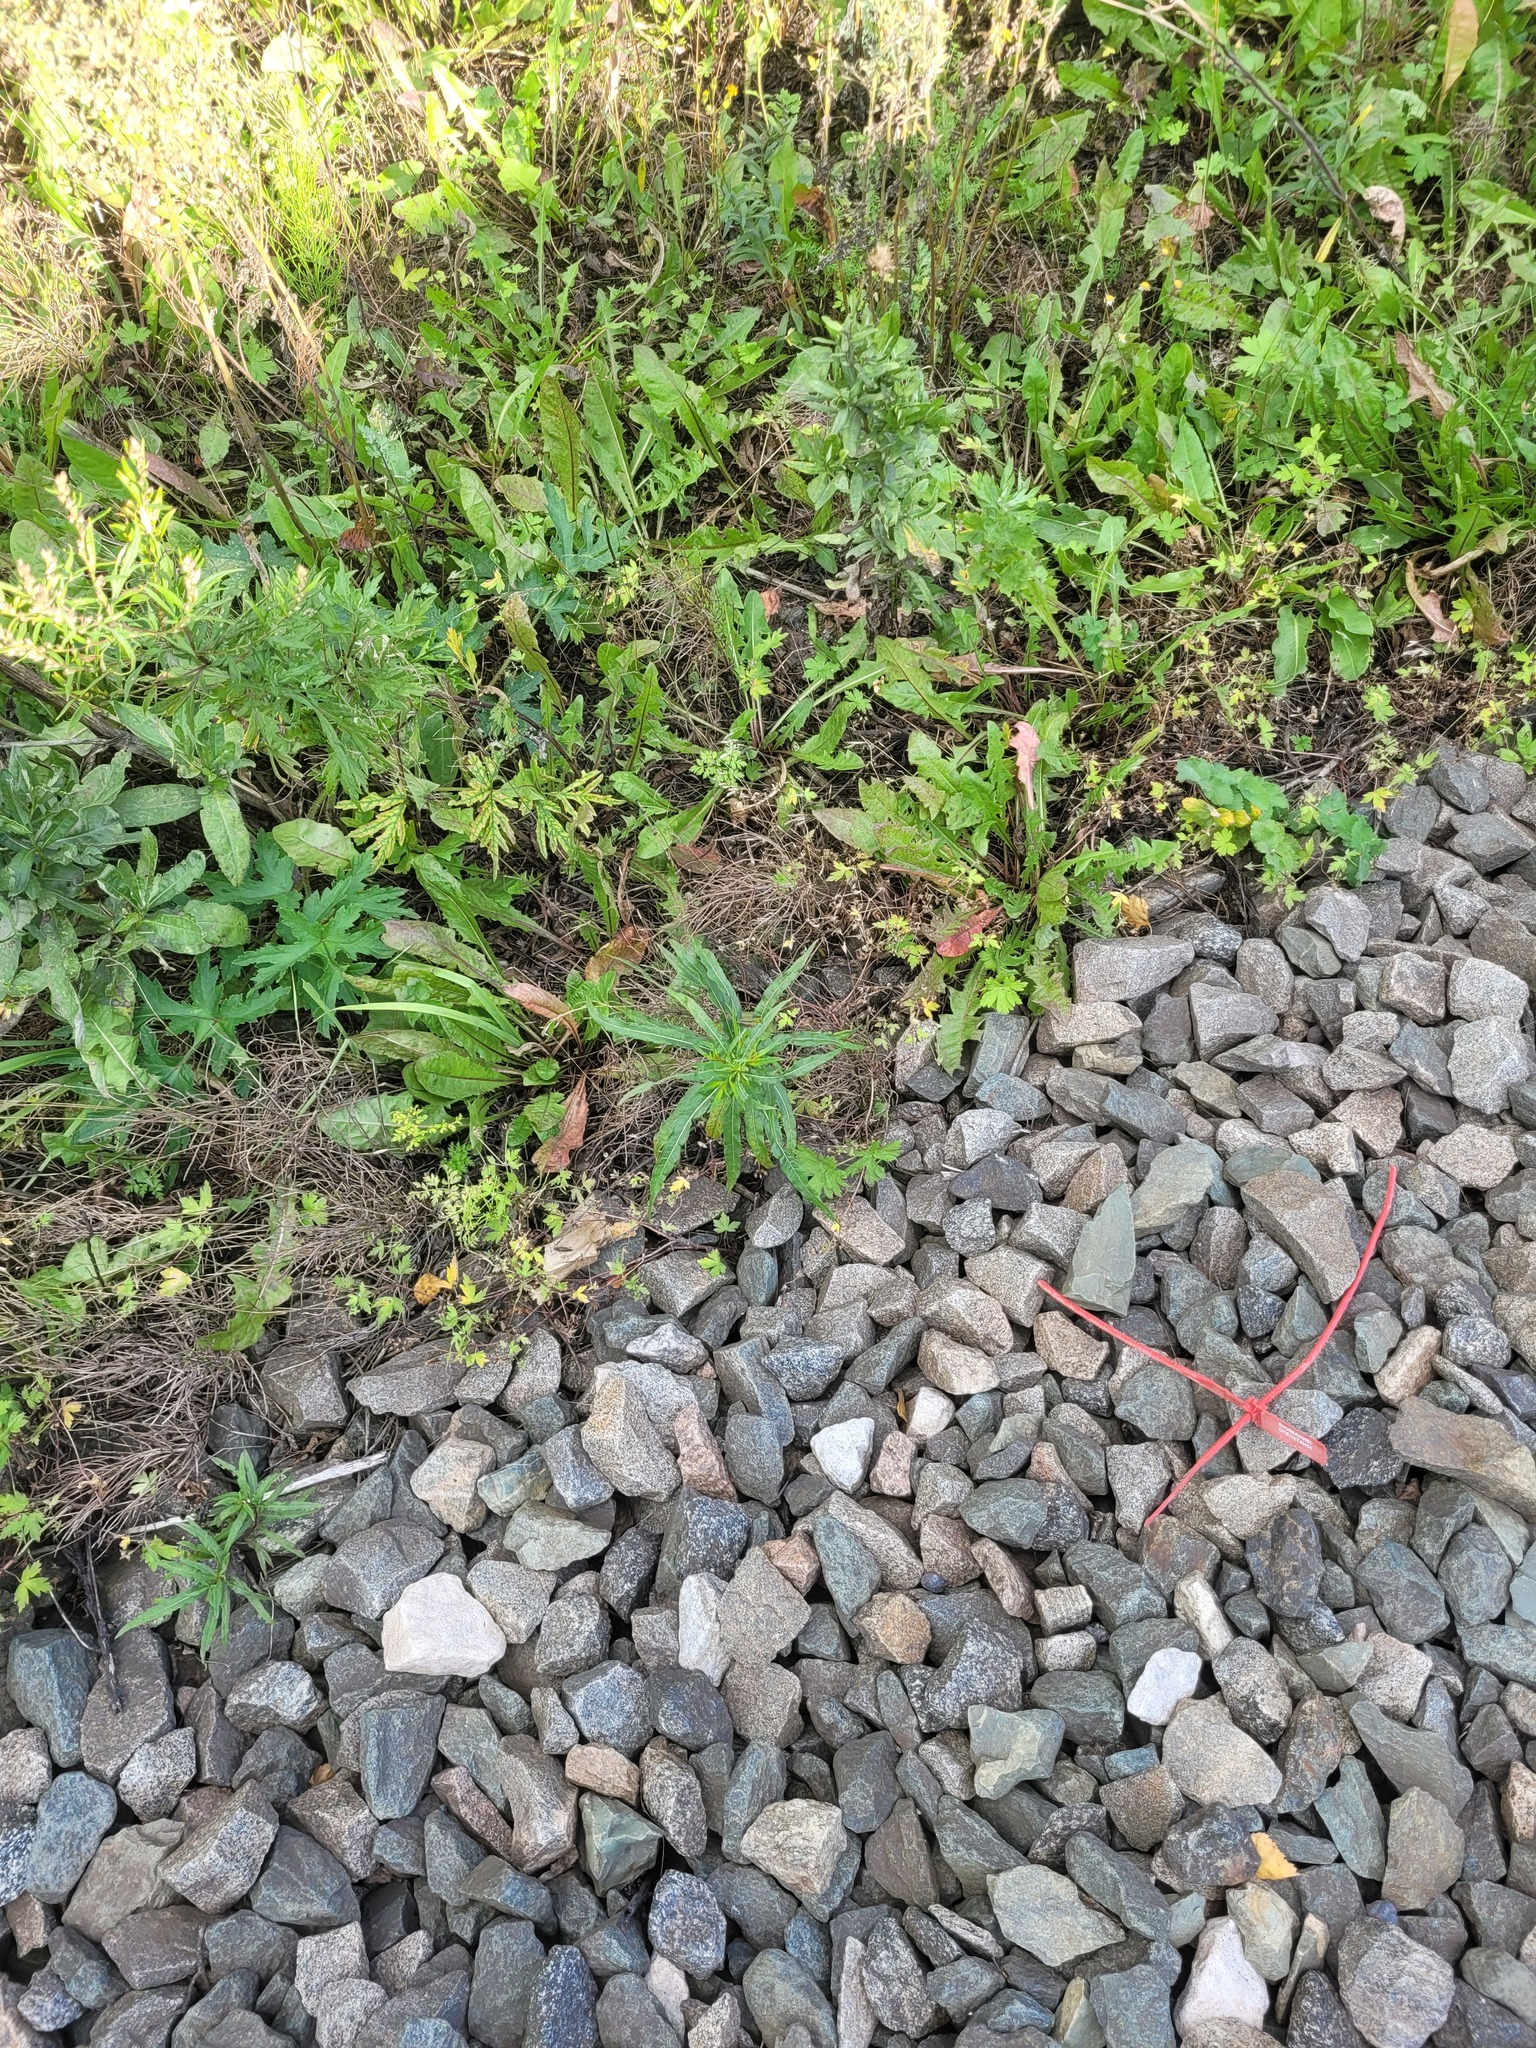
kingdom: Plantae
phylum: Tracheophyta
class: Magnoliopsida
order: Myrtales
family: Onagraceae
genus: Chamaenerion
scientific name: Chamaenerion angustifolium
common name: Fireweed
